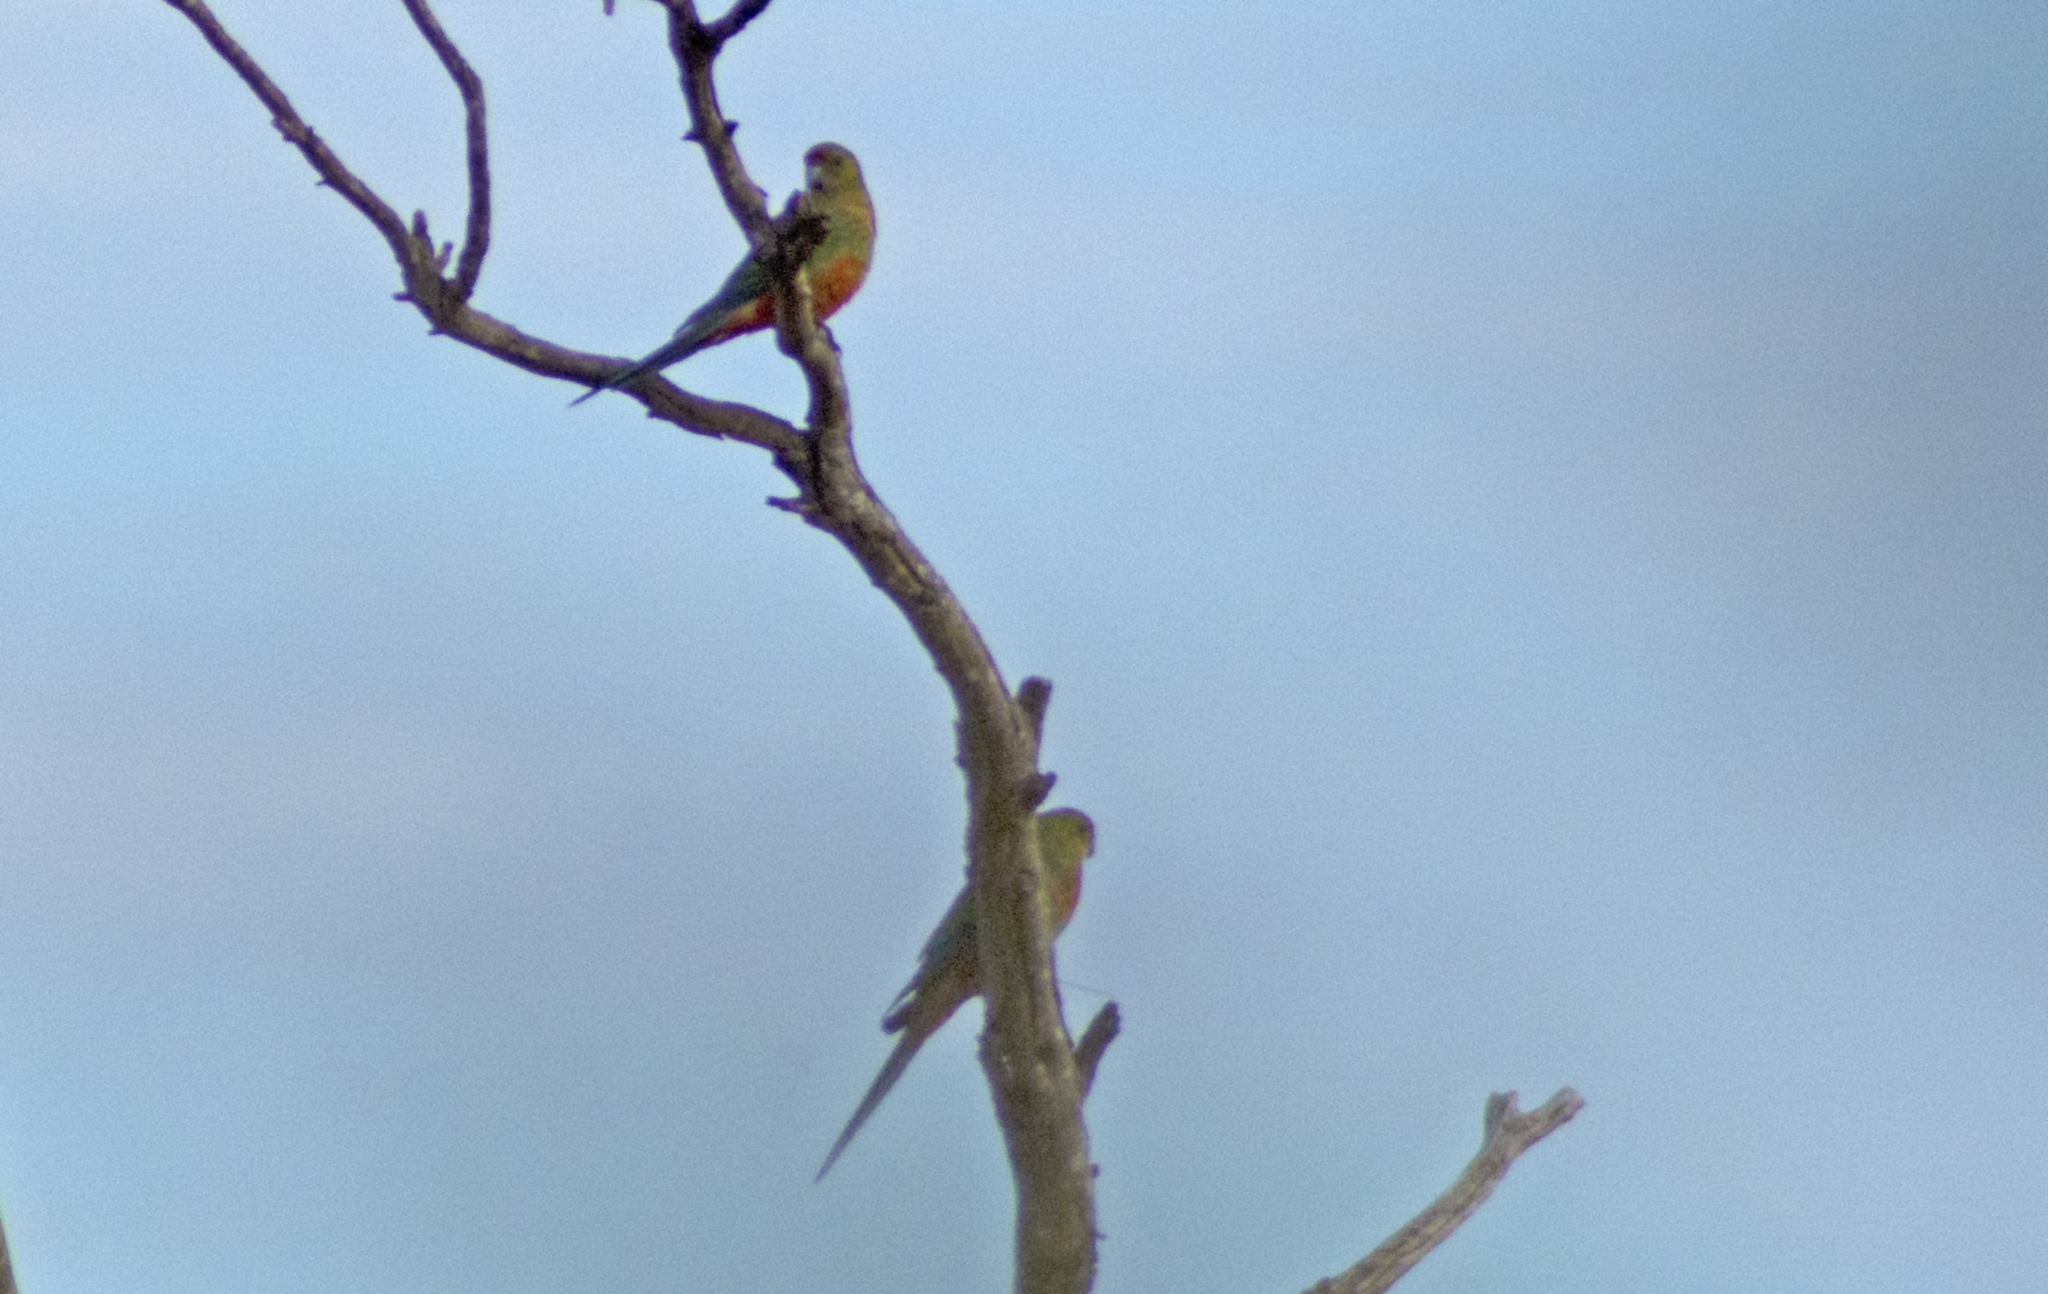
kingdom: Animalia
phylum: Chordata
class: Aves
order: Psittaciformes
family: Psittacidae
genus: Platycercus
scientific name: Platycercus icterotis
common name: Western rosella
